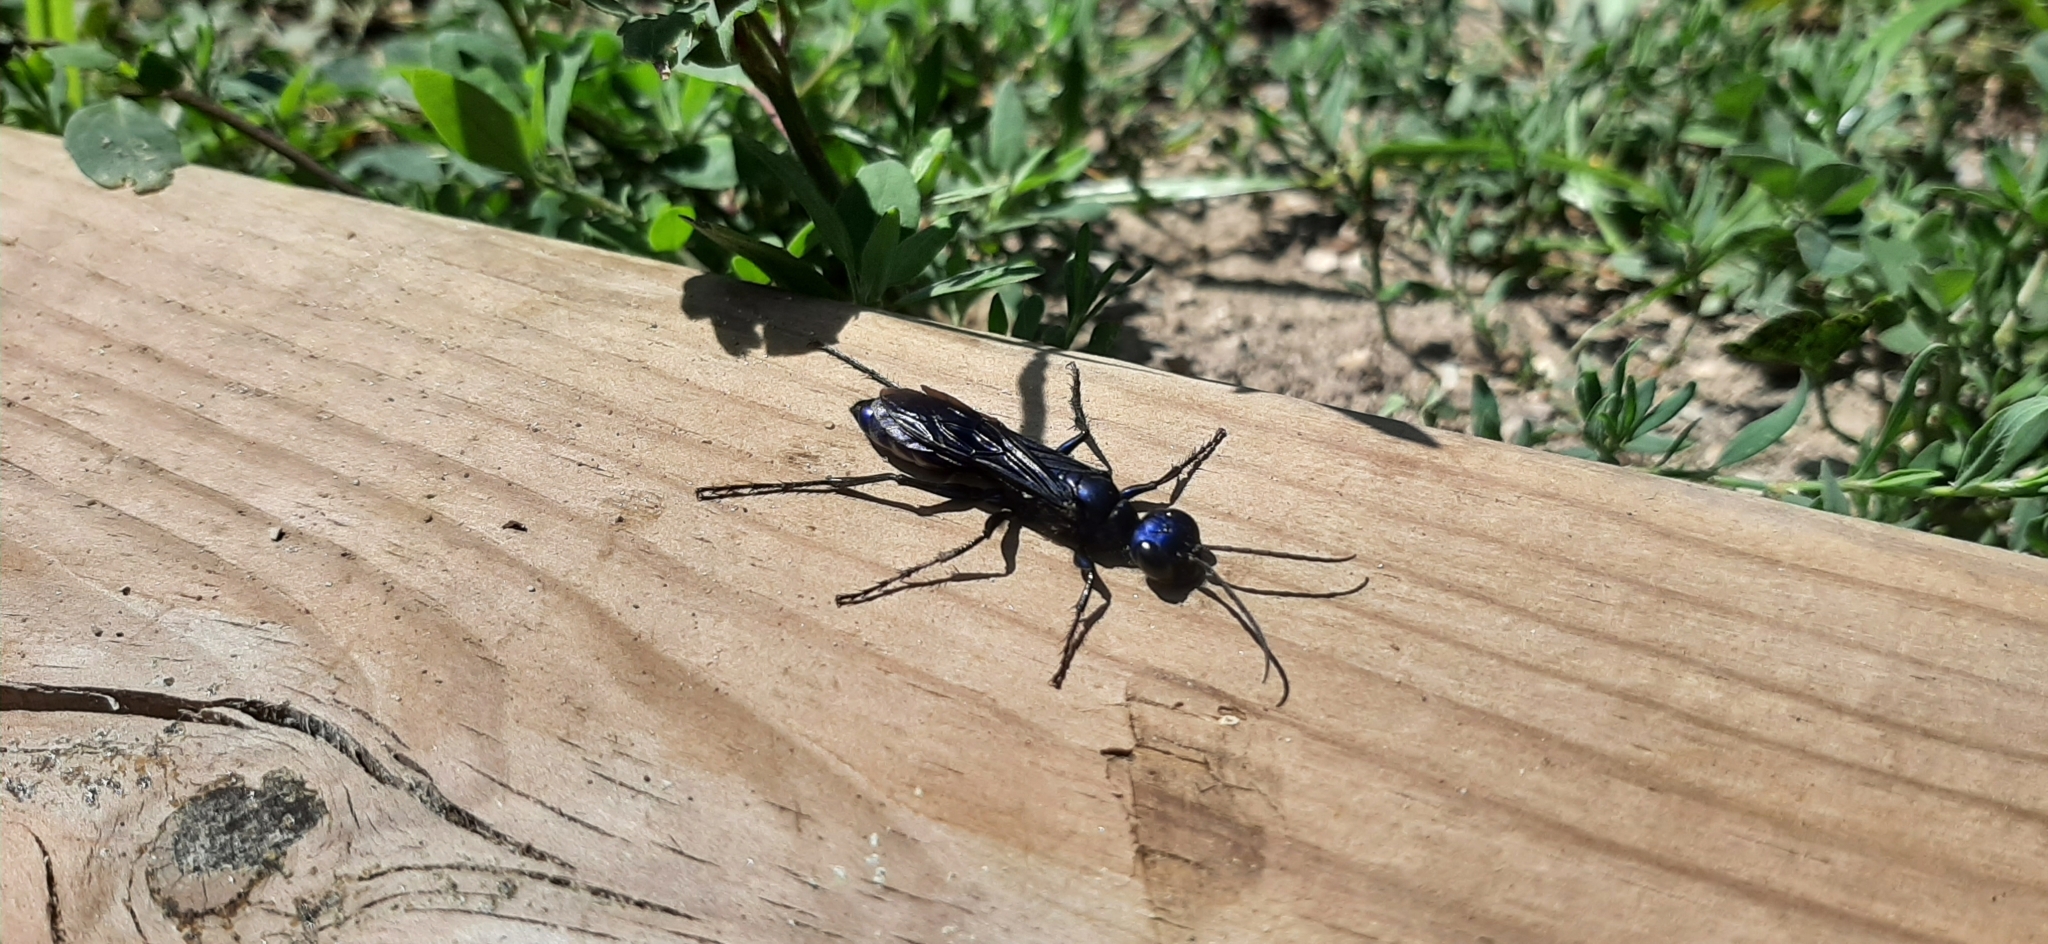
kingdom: Animalia
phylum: Arthropoda
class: Insecta
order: Hymenoptera
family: Sphecidae
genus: Chlorion
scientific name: Chlorion aerarium
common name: Steel-blue cricket hunter
